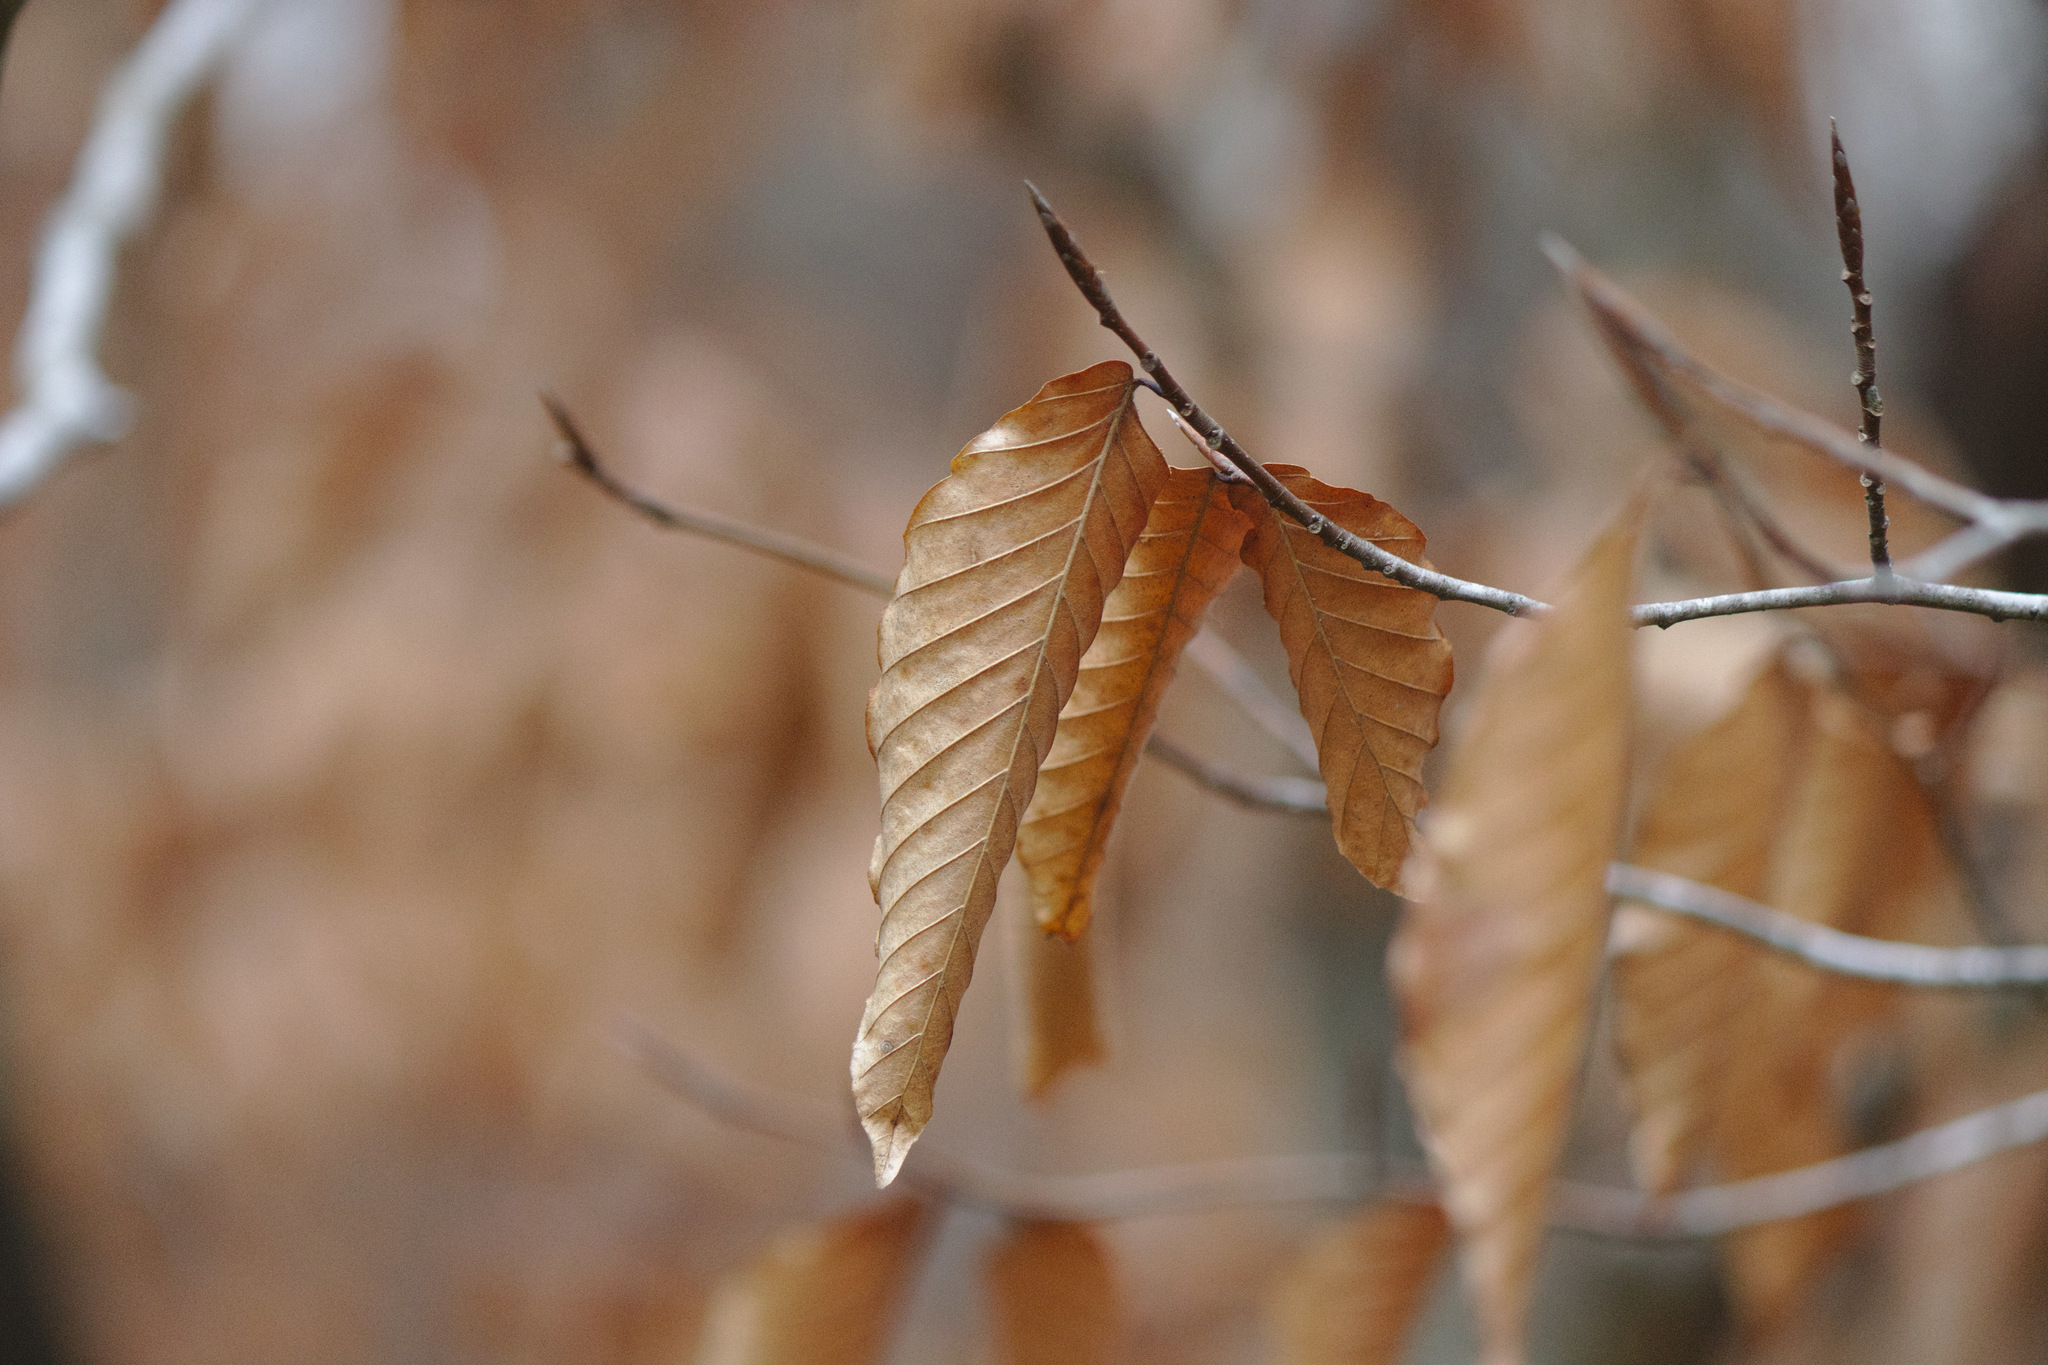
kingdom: Plantae
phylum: Tracheophyta
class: Magnoliopsida
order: Fagales
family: Fagaceae
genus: Fagus
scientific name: Fagus grandifolia
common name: American beech
